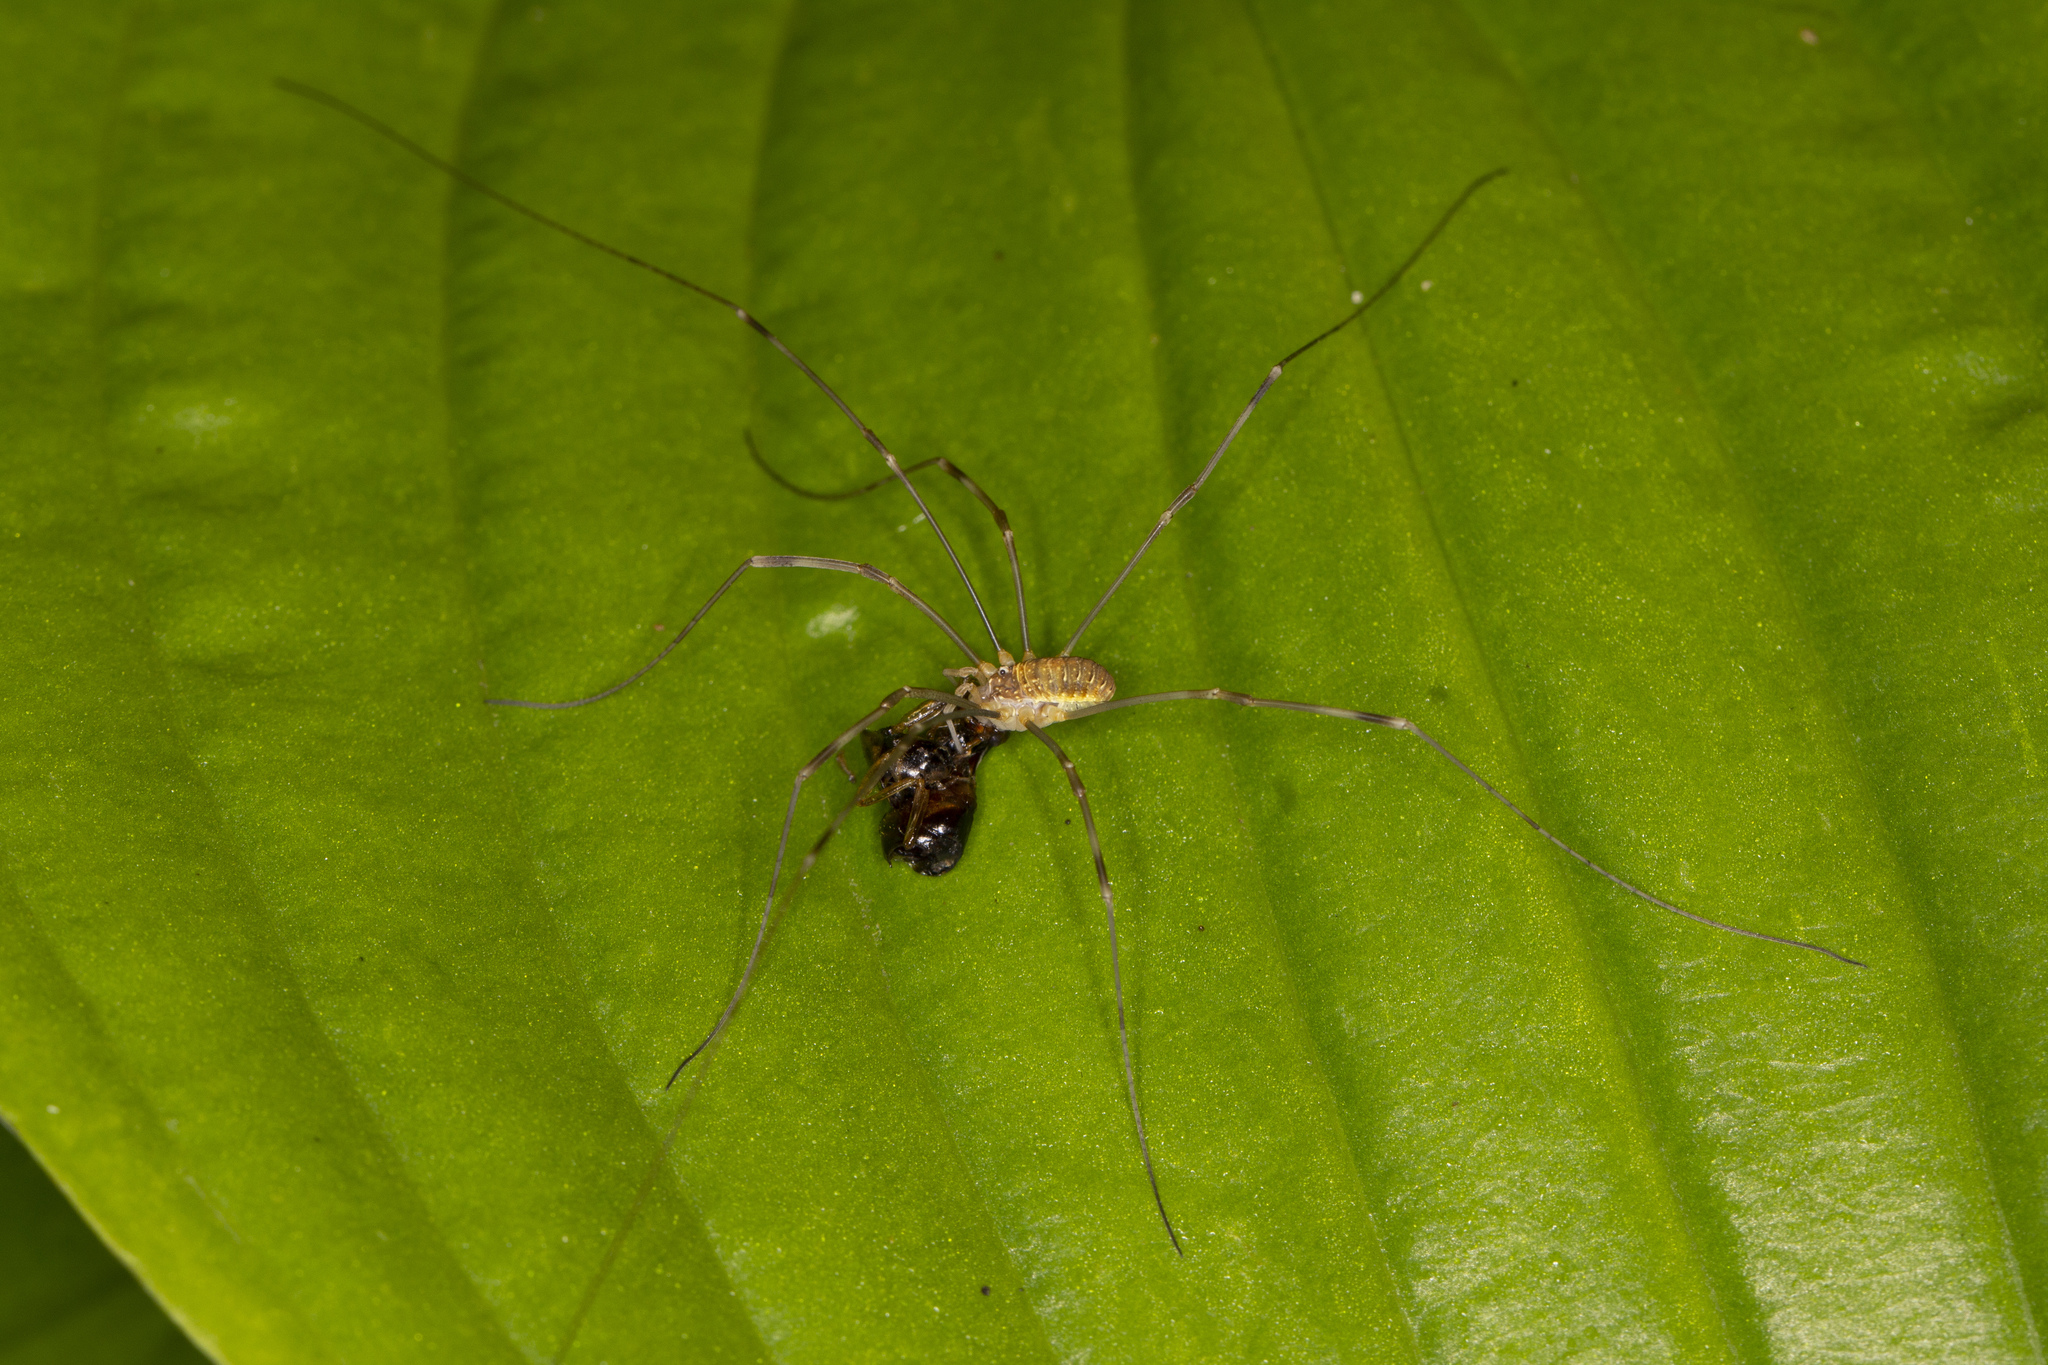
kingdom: Animalia
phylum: Arthropoda
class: Arachnida
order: Opiliones
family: Phalangiidae
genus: Opilio
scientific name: Opilio canestrinii
